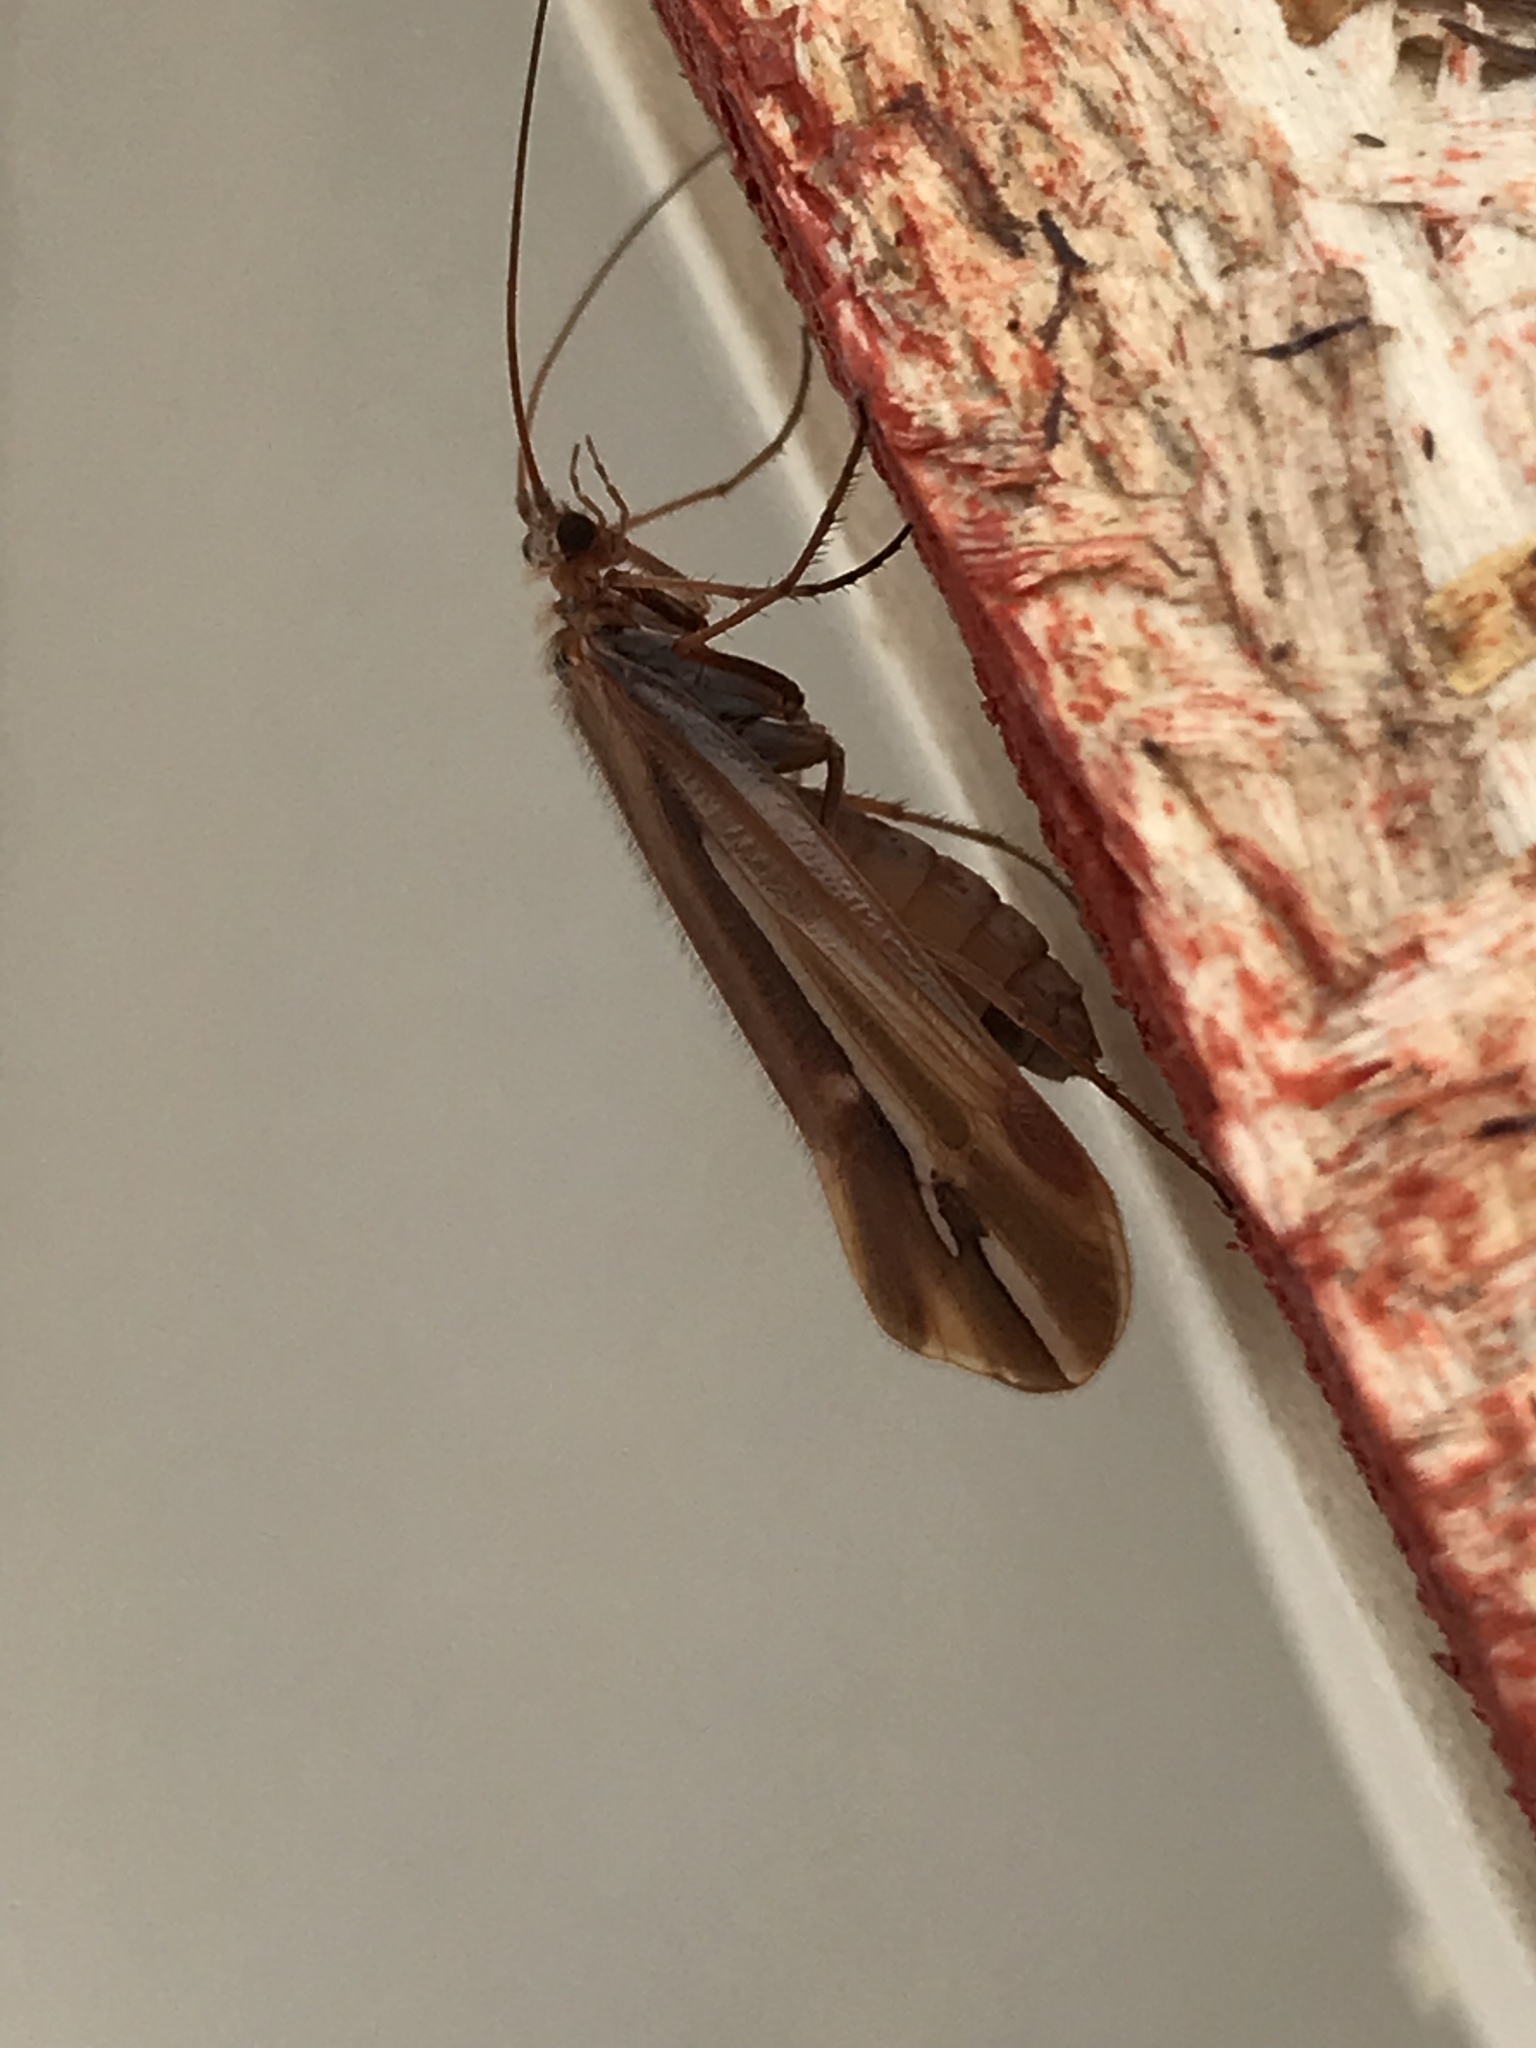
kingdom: Animalia
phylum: Arthropoda
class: Insecta
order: Trichoptera
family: Limnephilidae
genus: Psychoglypha
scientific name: Psychoglypha subborealis
